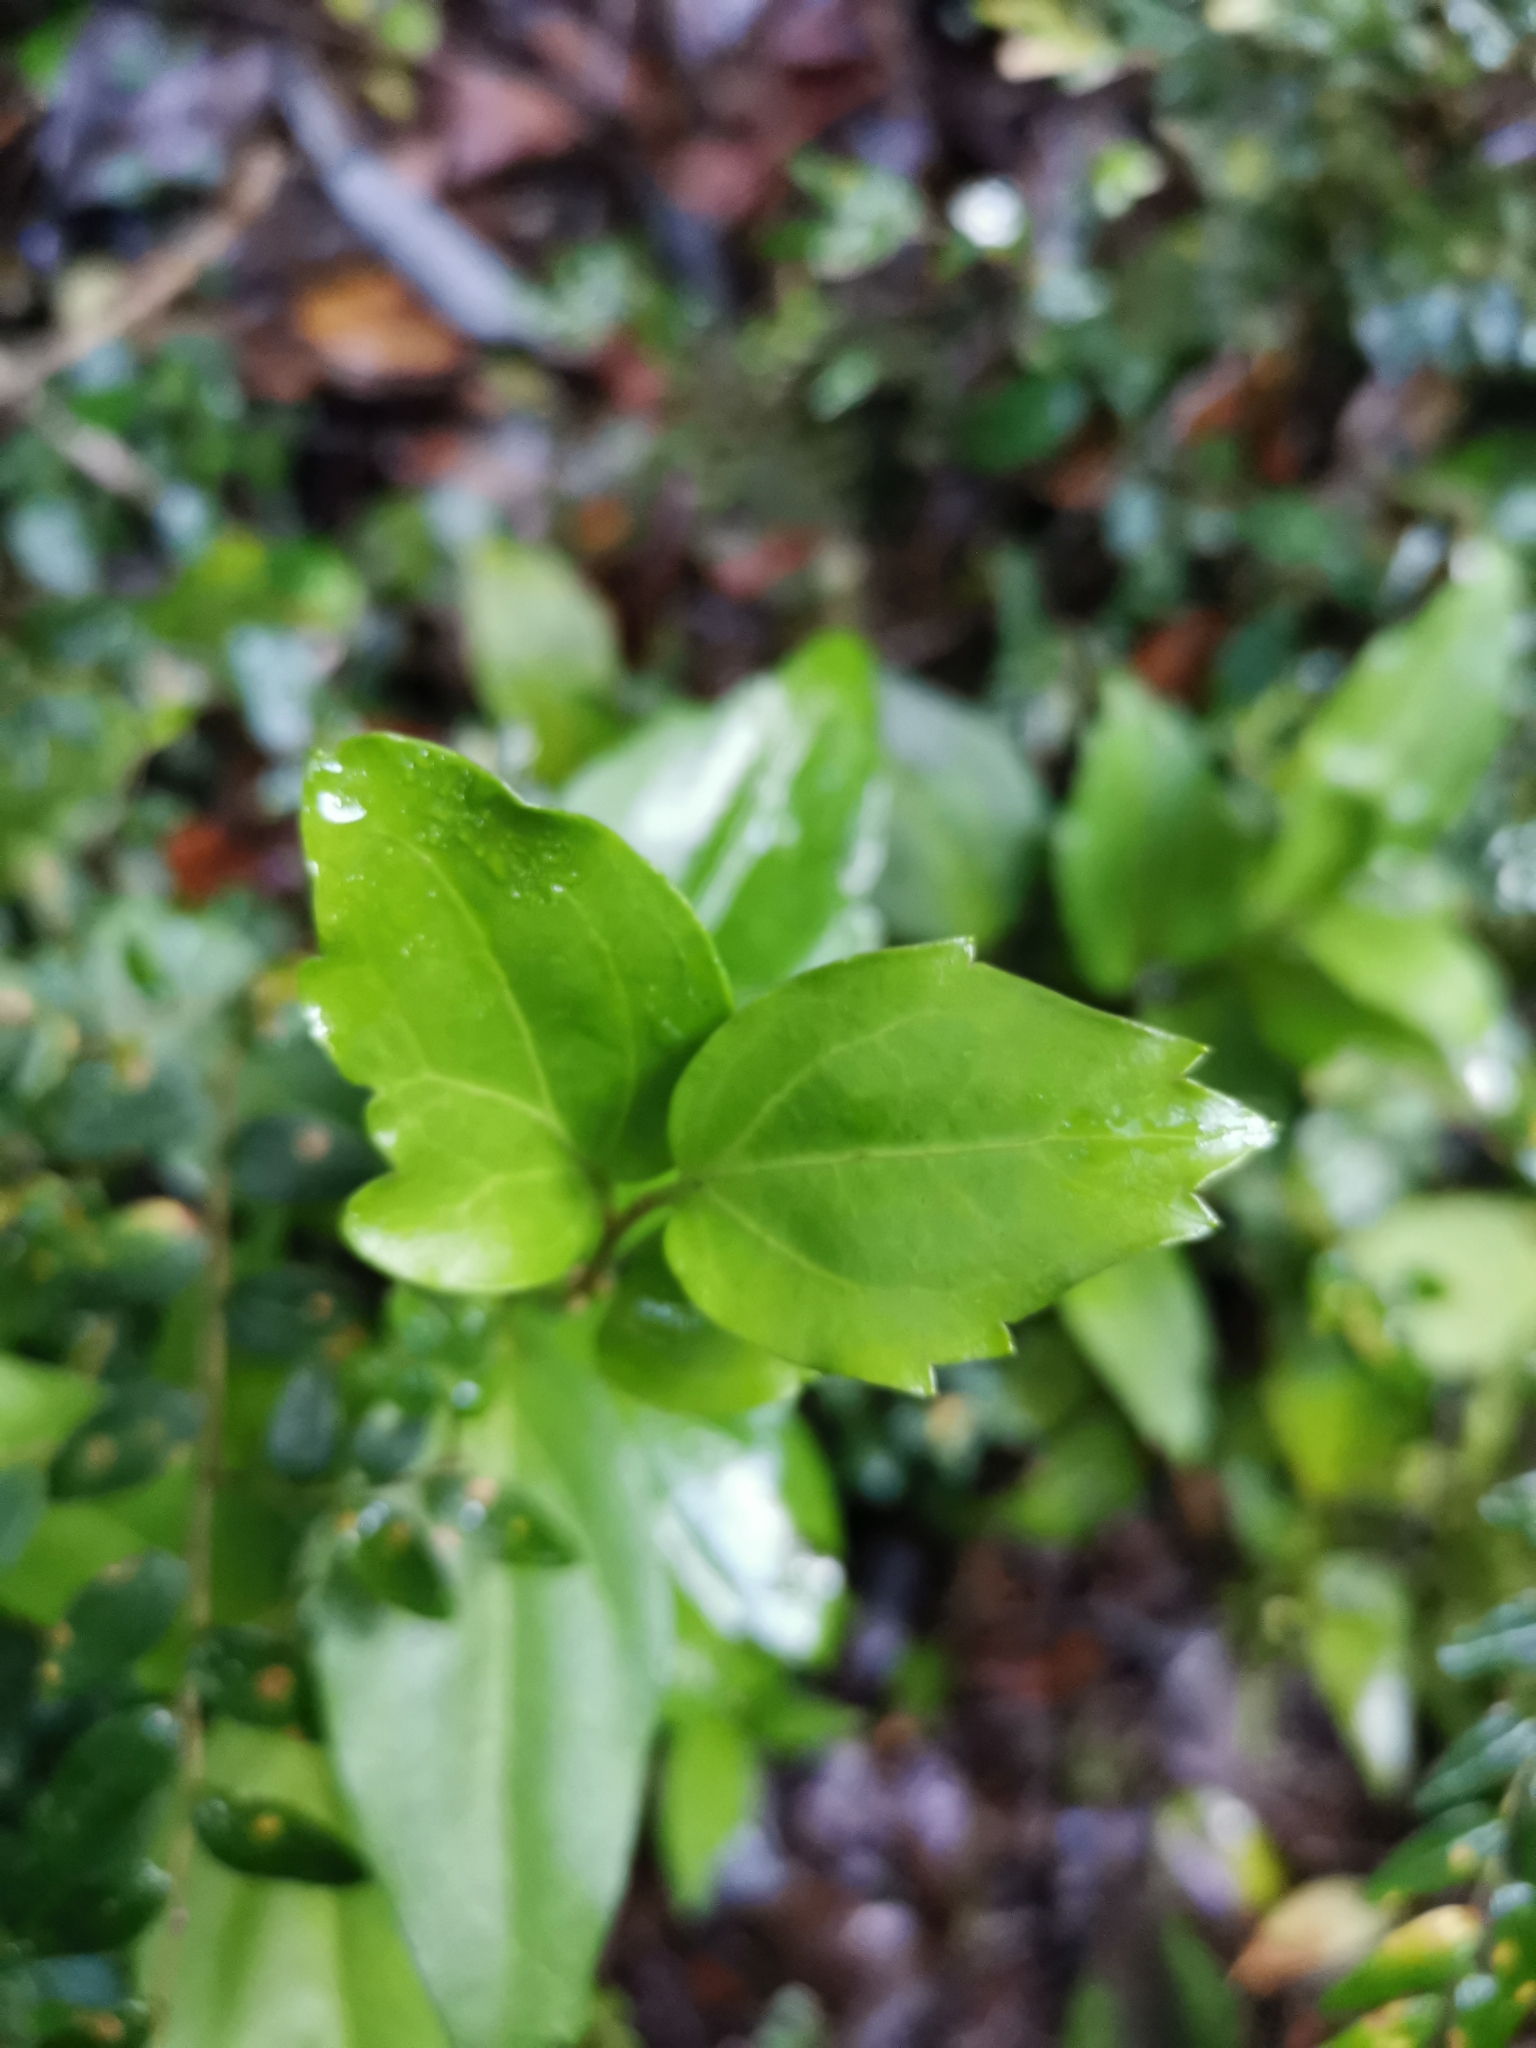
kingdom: Plantae
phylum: Tracheophyta
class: Magnoliopsida
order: Apiales
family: Griseliniaceae
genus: Griselinia
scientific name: Griselinia racemosa
